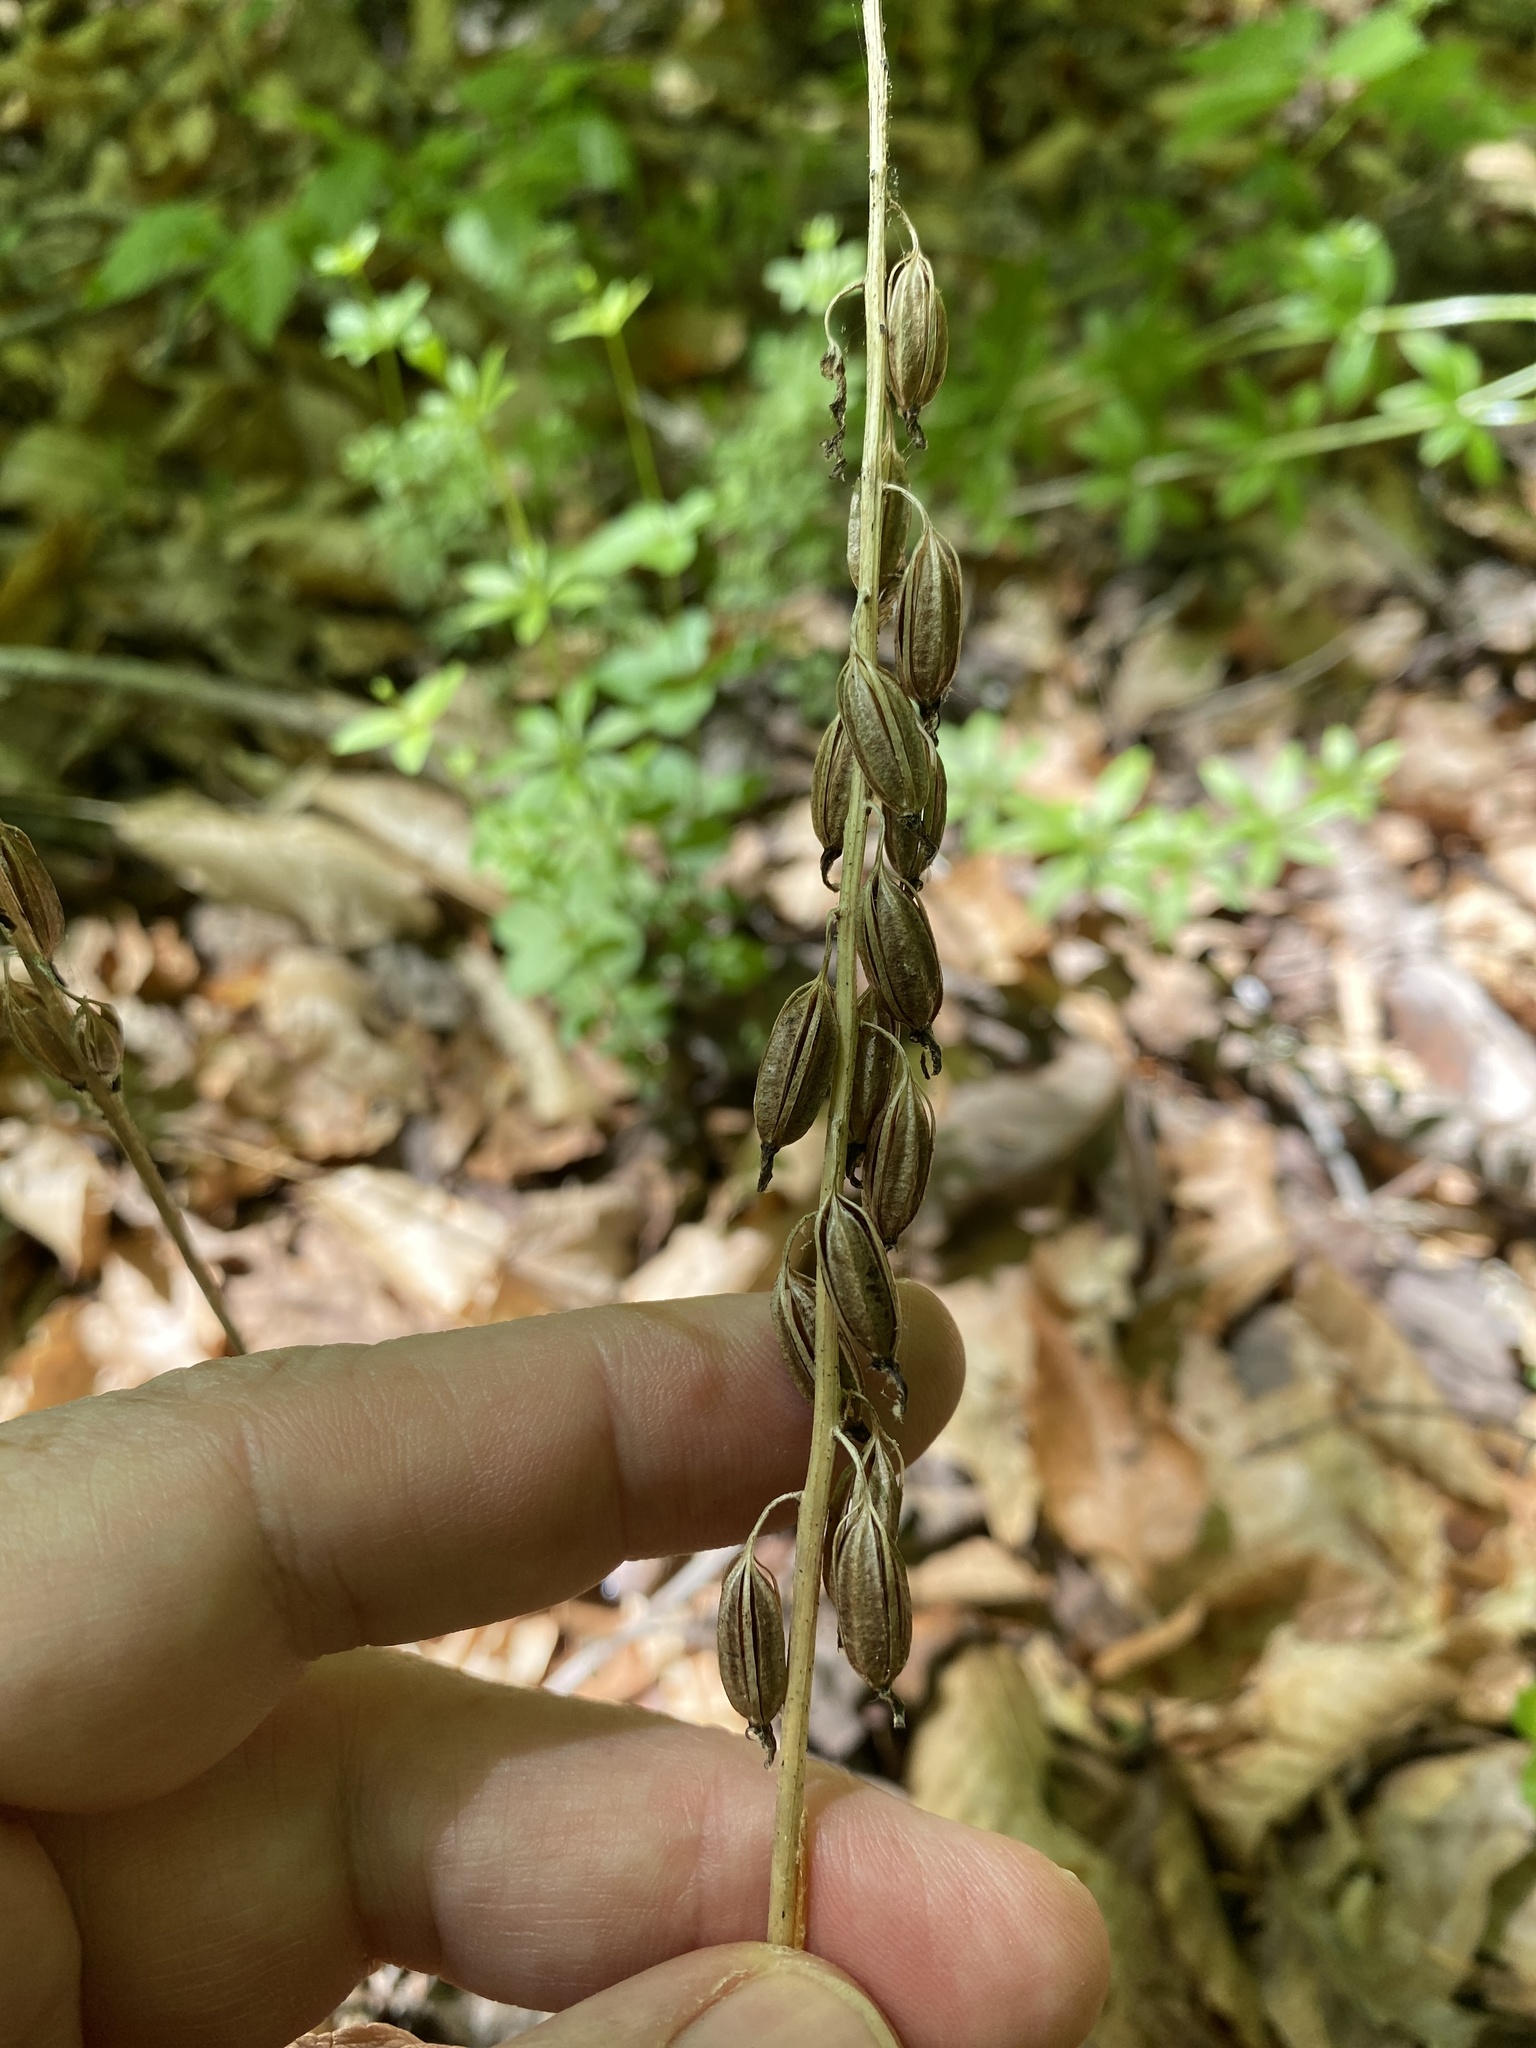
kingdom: Plantae
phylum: Tracheophyta
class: Liliopsida
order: Asparagales
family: Orchidaceae
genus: Tipularia
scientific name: Tipularia discolor
